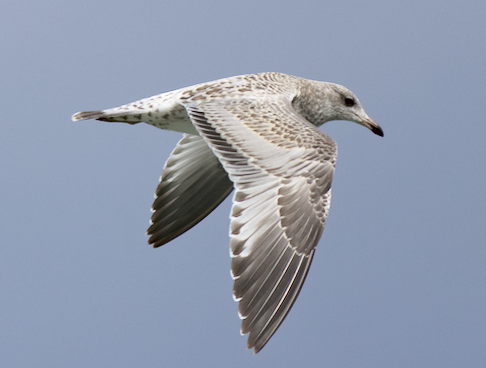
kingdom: Animalia
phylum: Chordata
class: Aves
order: Charadriiformes
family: Laridae
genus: Larus
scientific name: Larus delawarensis
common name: Ring-billed gull
